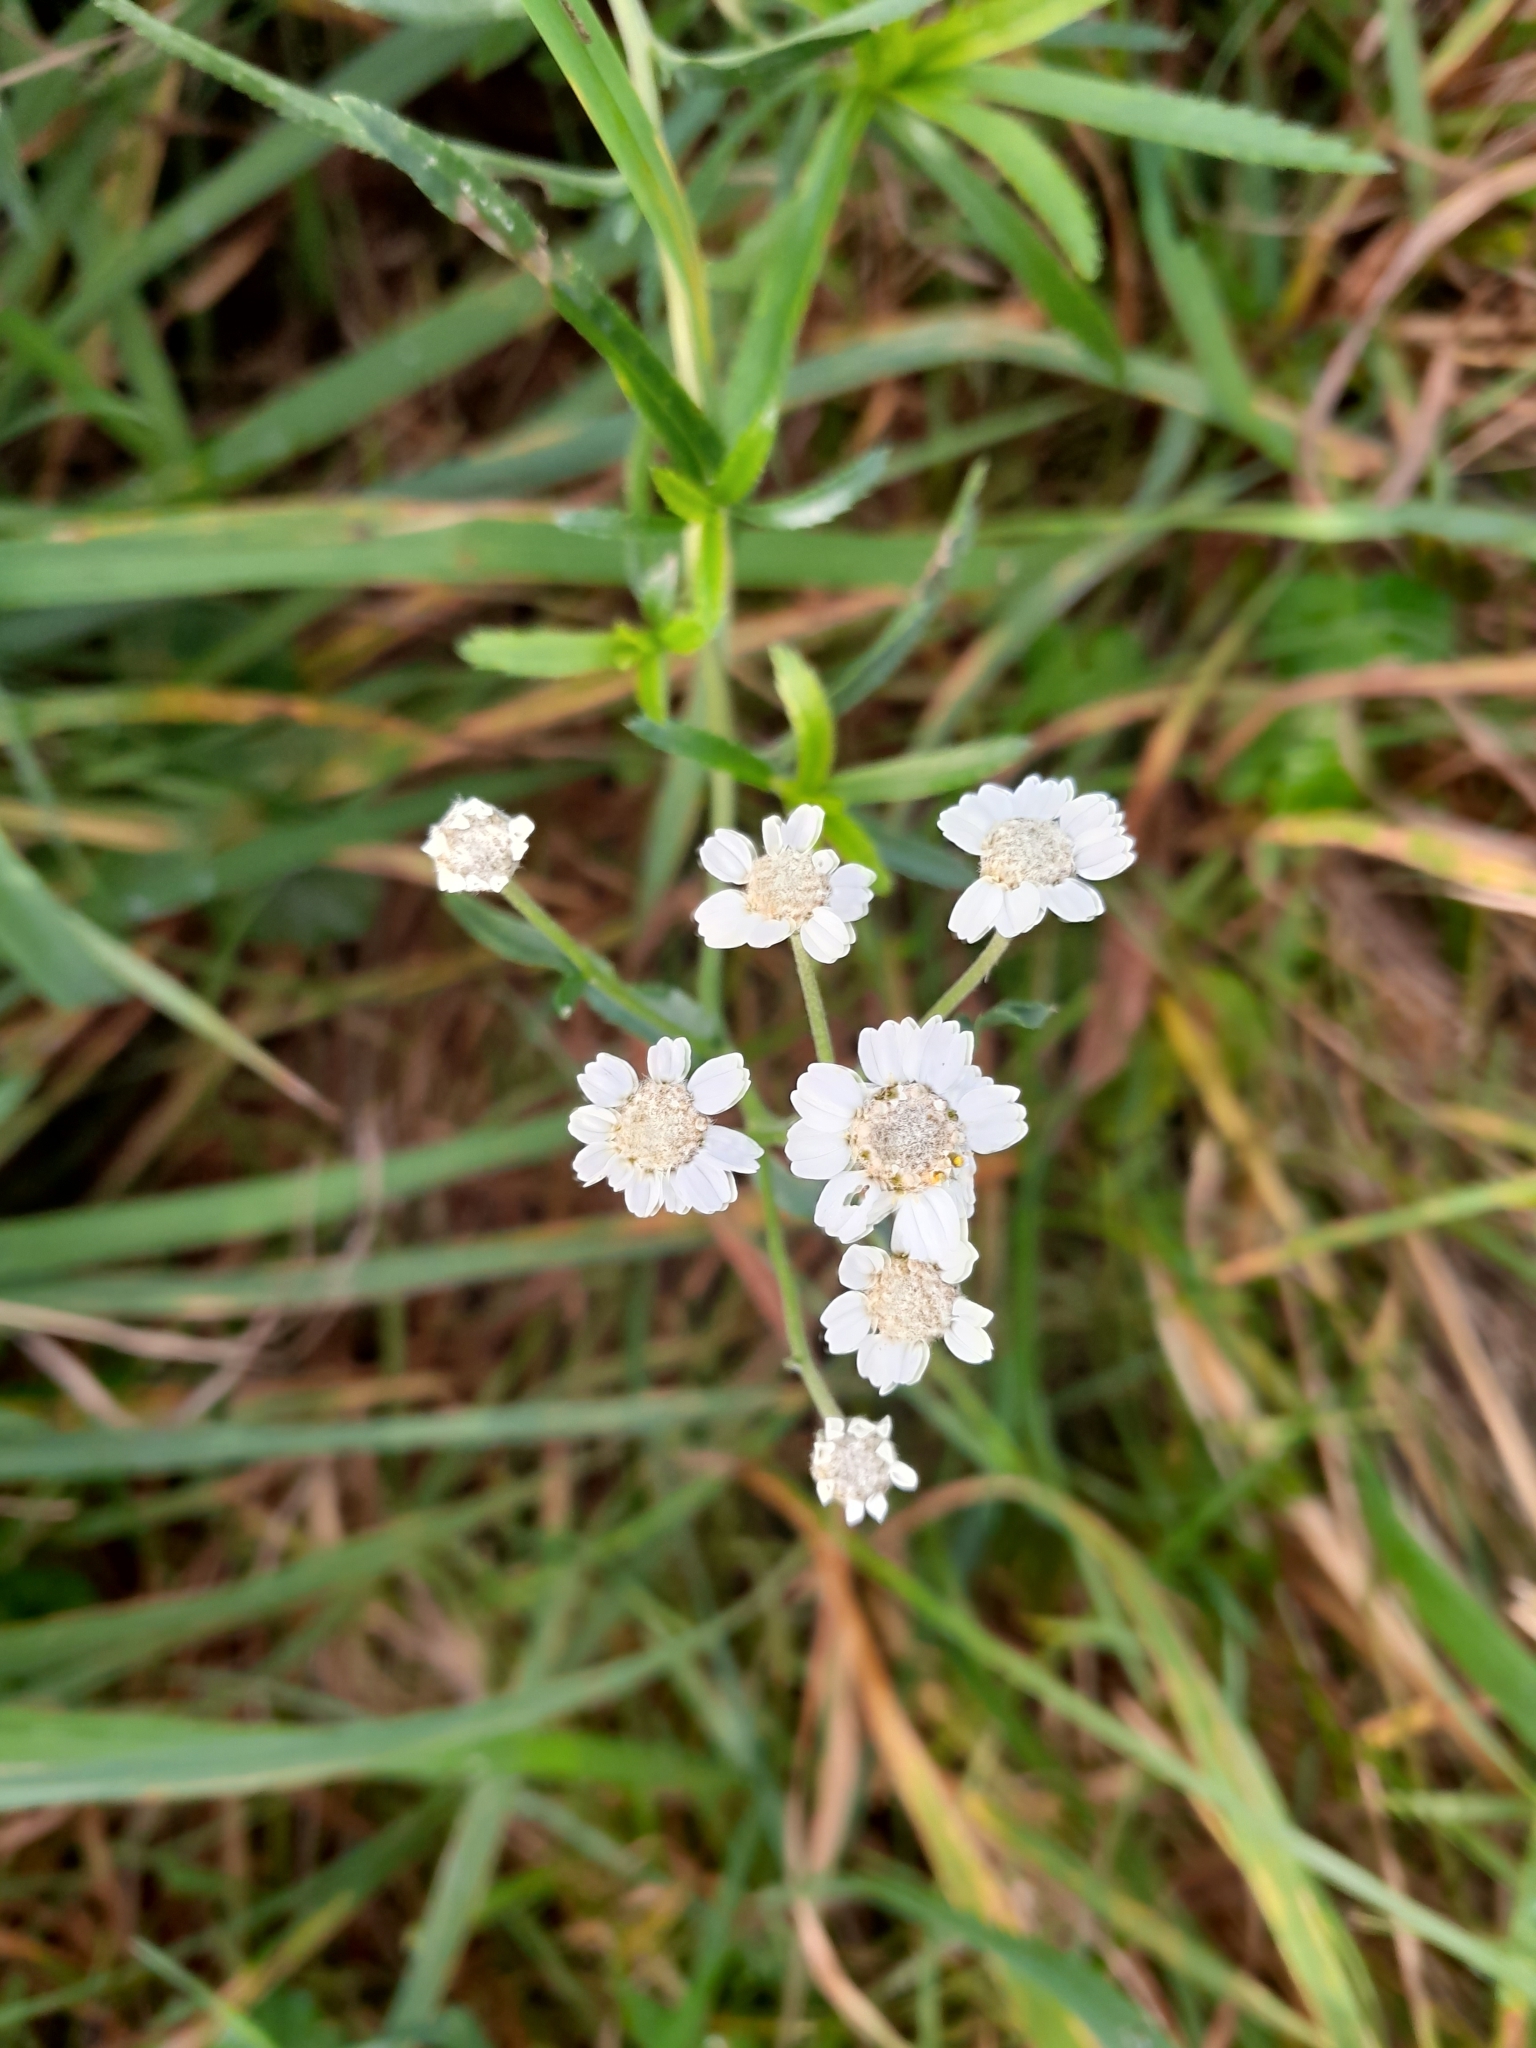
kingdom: Plantae
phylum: Tracheophyta
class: Magnoliopsida
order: Asterales
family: Asteraceae
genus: Achillea
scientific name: Achillea ptarmica
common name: Sneezeweed
